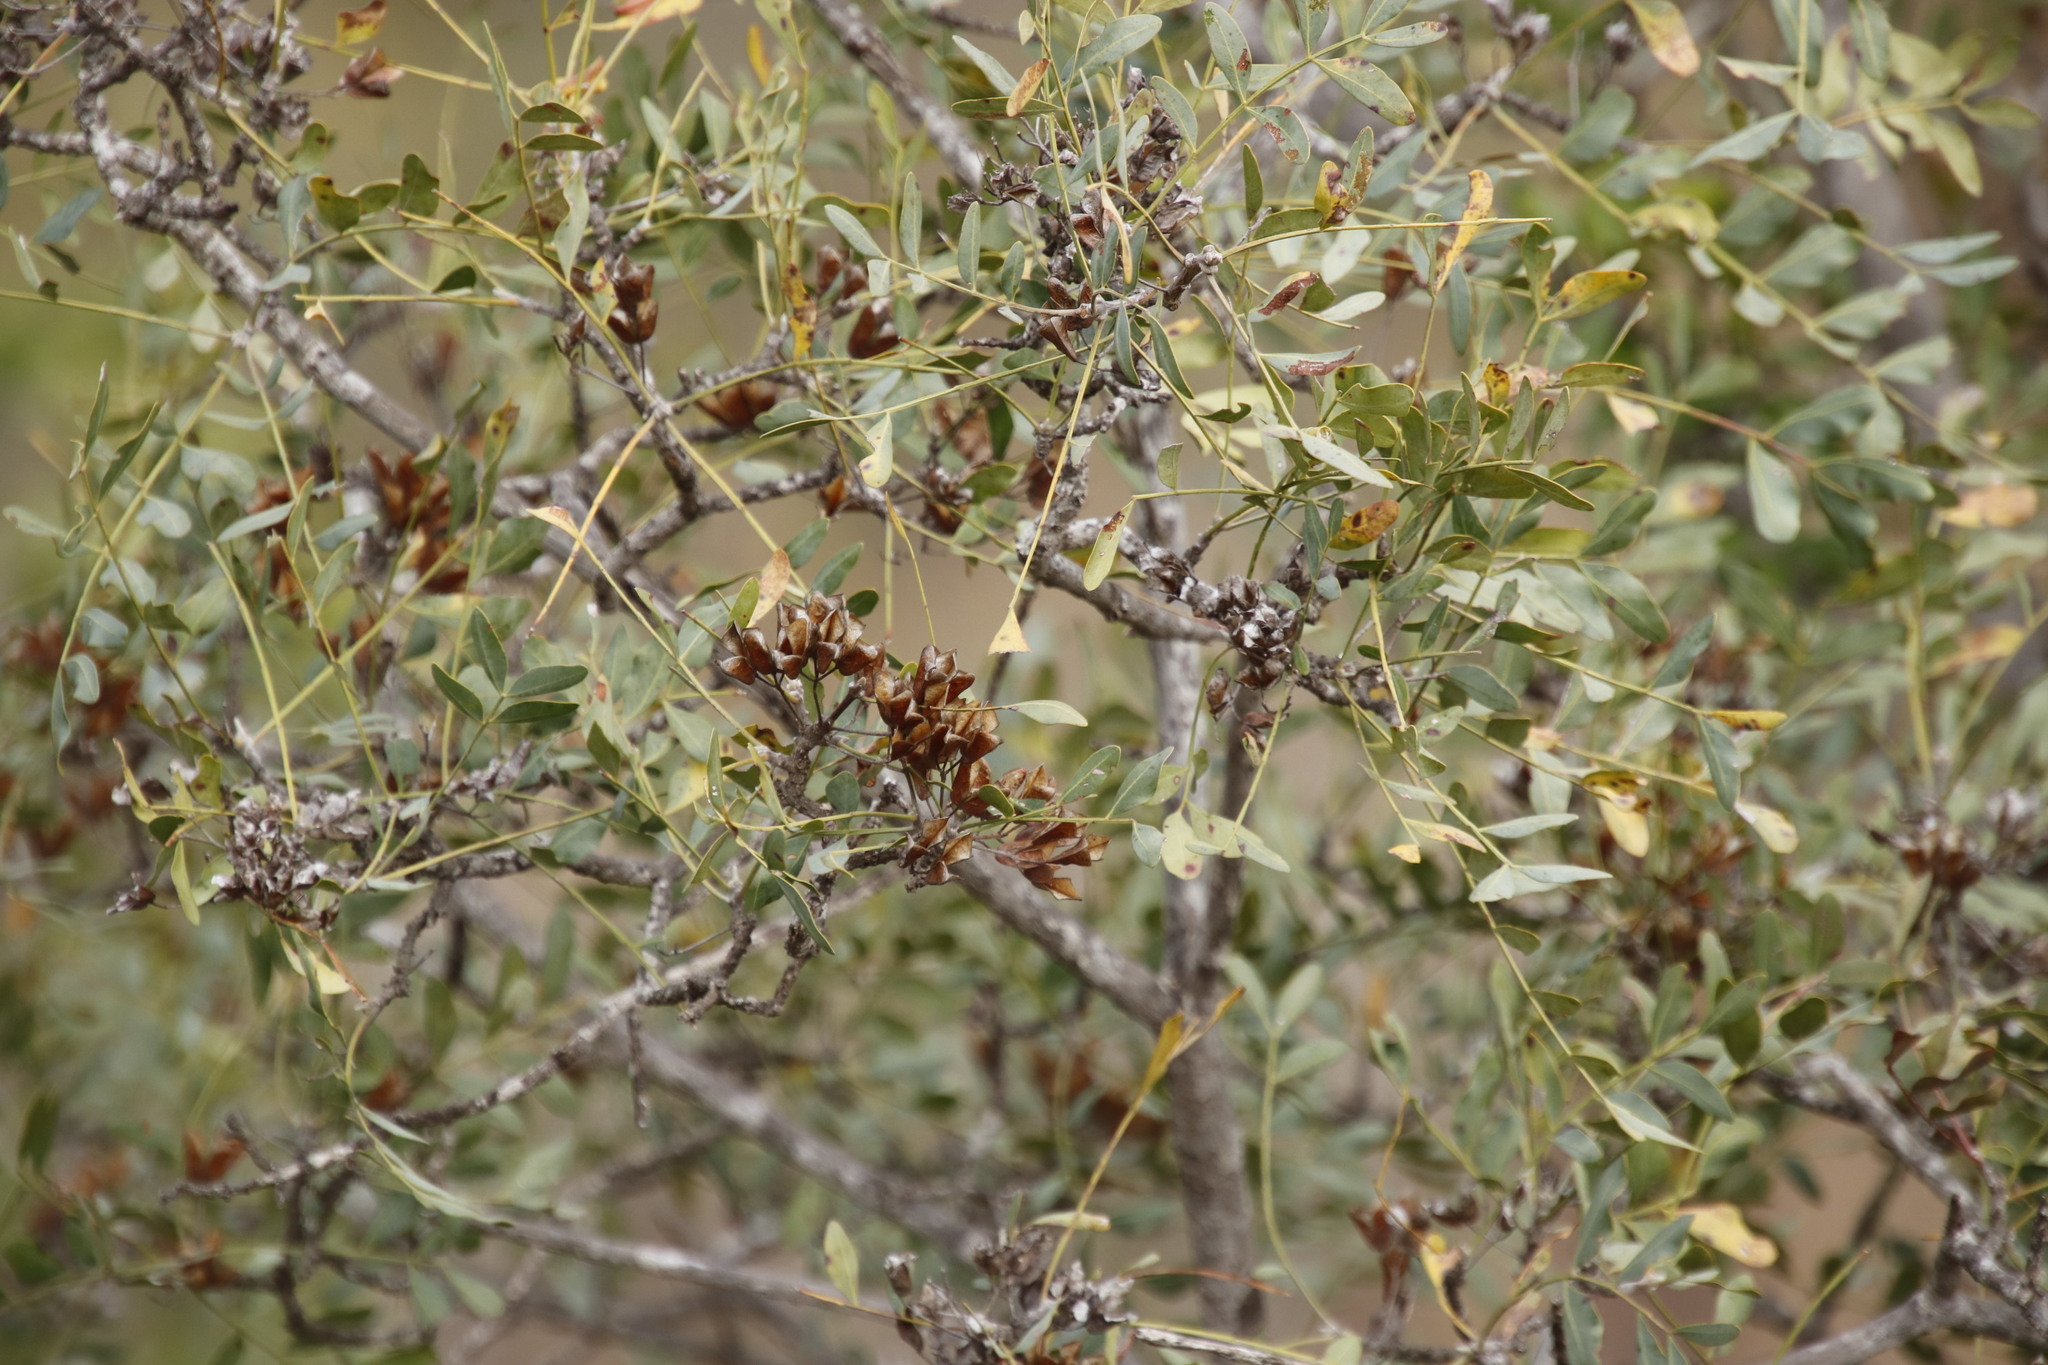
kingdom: Plantae
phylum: Tracheophyta
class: Magnoliopsida
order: Sapindales
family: Rutaceae
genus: Ptaeroxylon
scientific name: Ptaeroxylon obliquum
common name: Sneezewood
